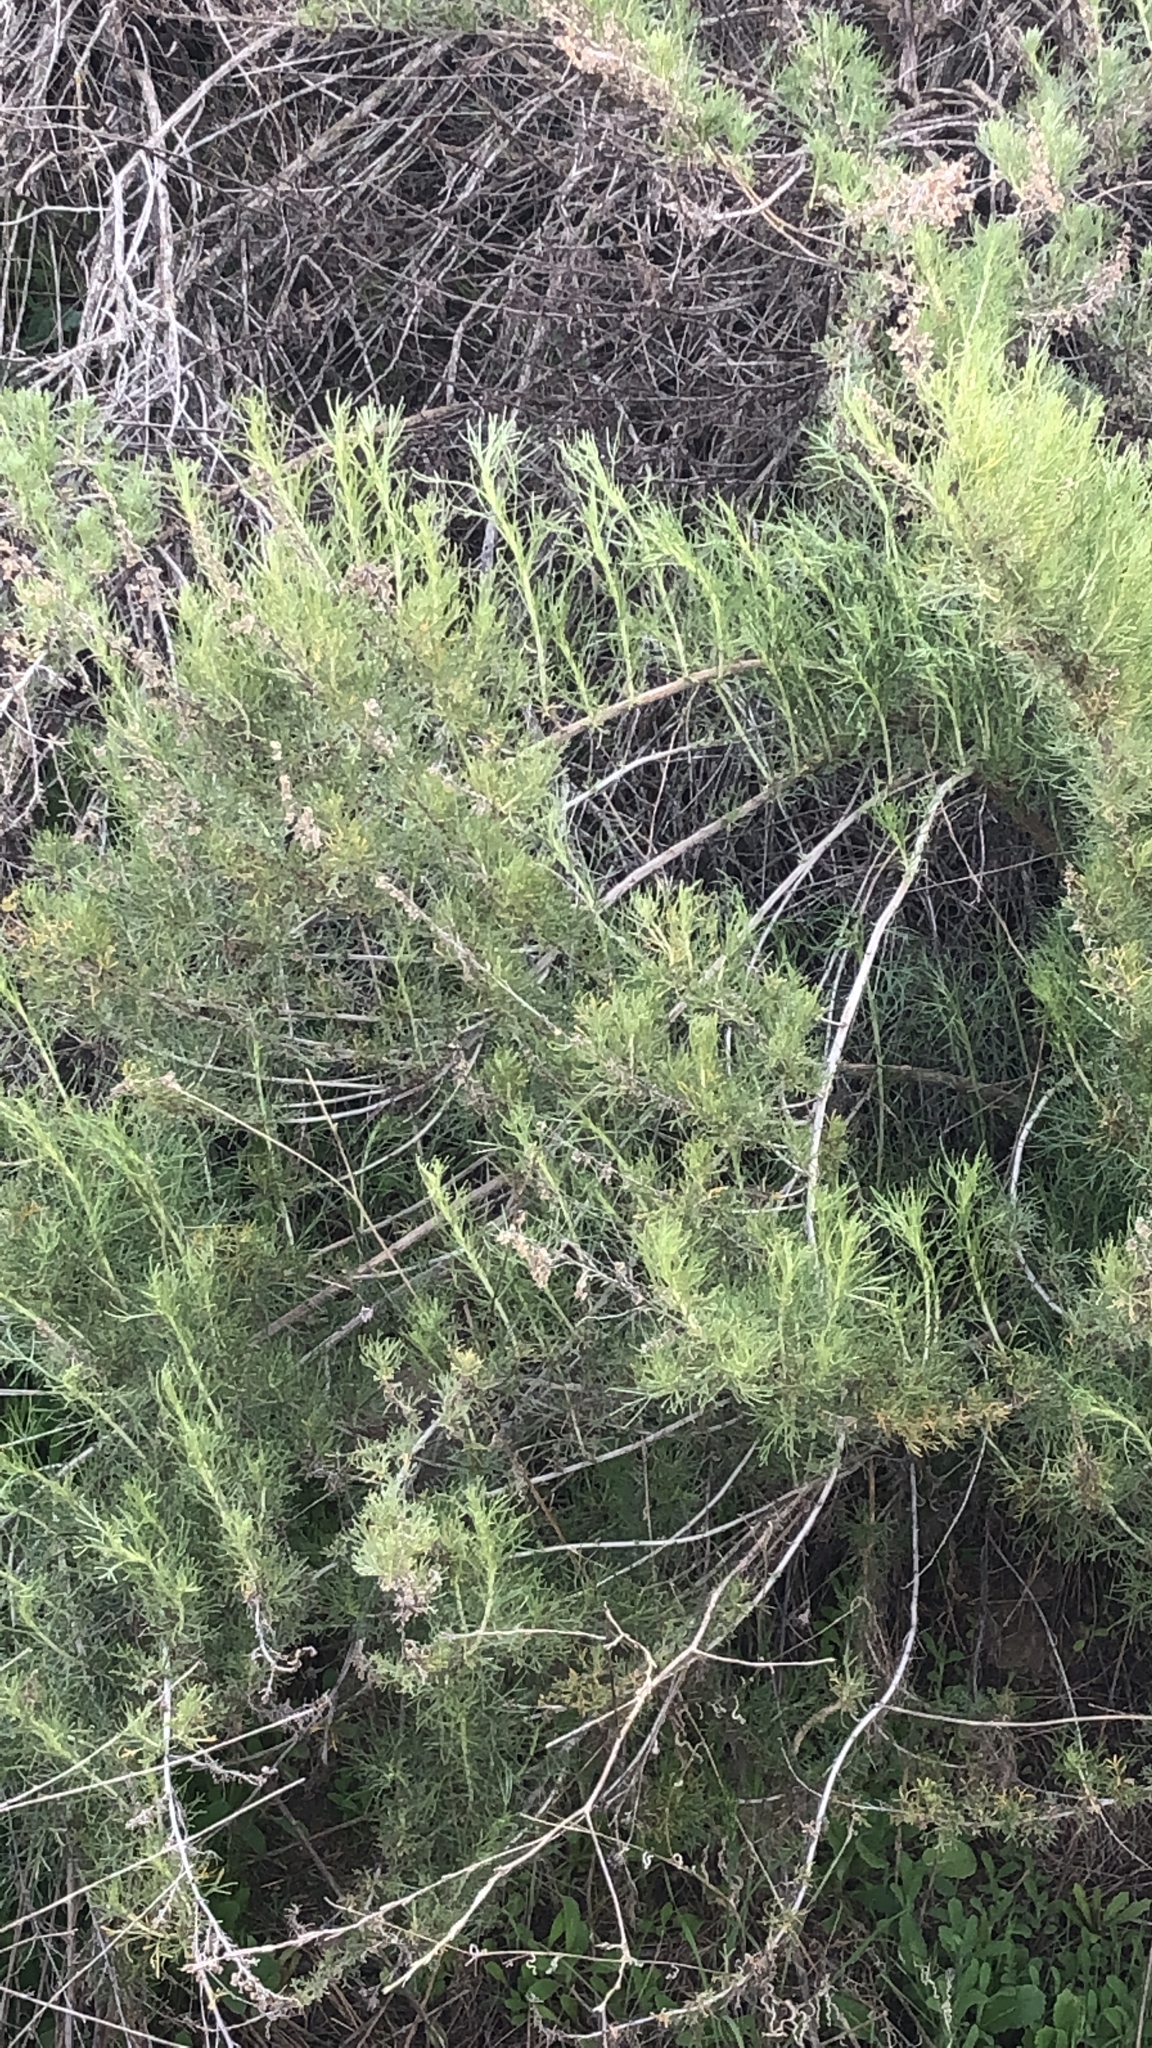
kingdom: Plantae
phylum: Tracheophyta
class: Magnoliopsida
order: Asterales
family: Asteraceae
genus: Artemisia
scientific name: Artemisia californica
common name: California sagebrush
